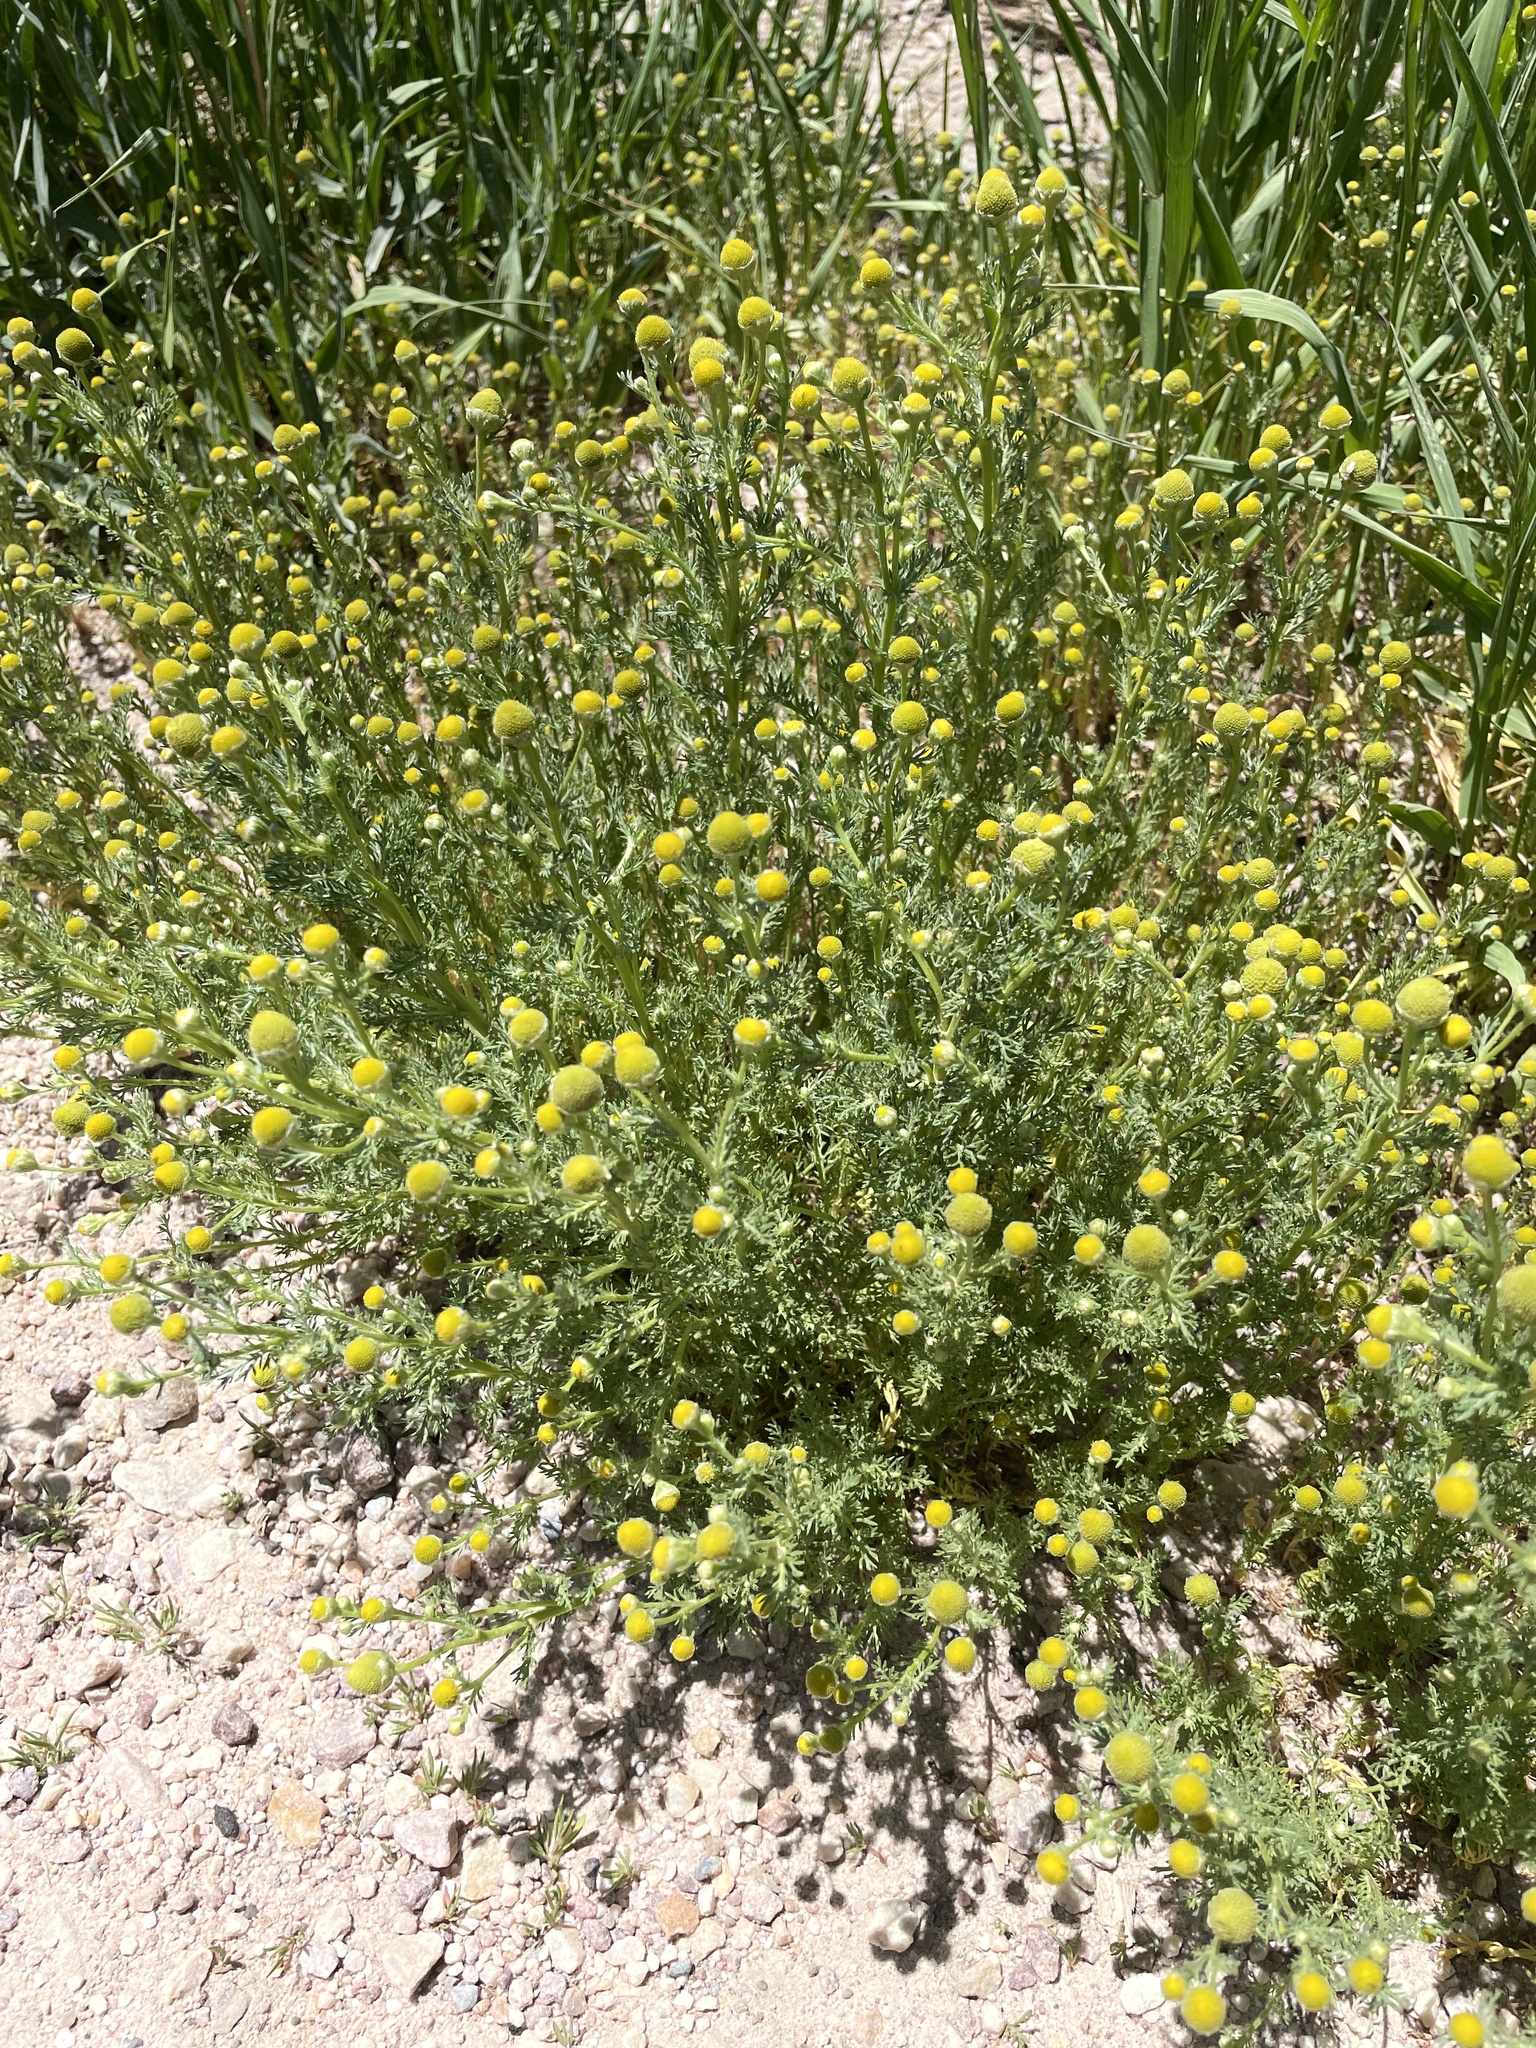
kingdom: Plantae
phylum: Tracheophyta
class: Magnoliopsida
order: Asterales
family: Asteraceae
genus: Matricaria
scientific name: Matricaria discoidea
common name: Disc mayweed
